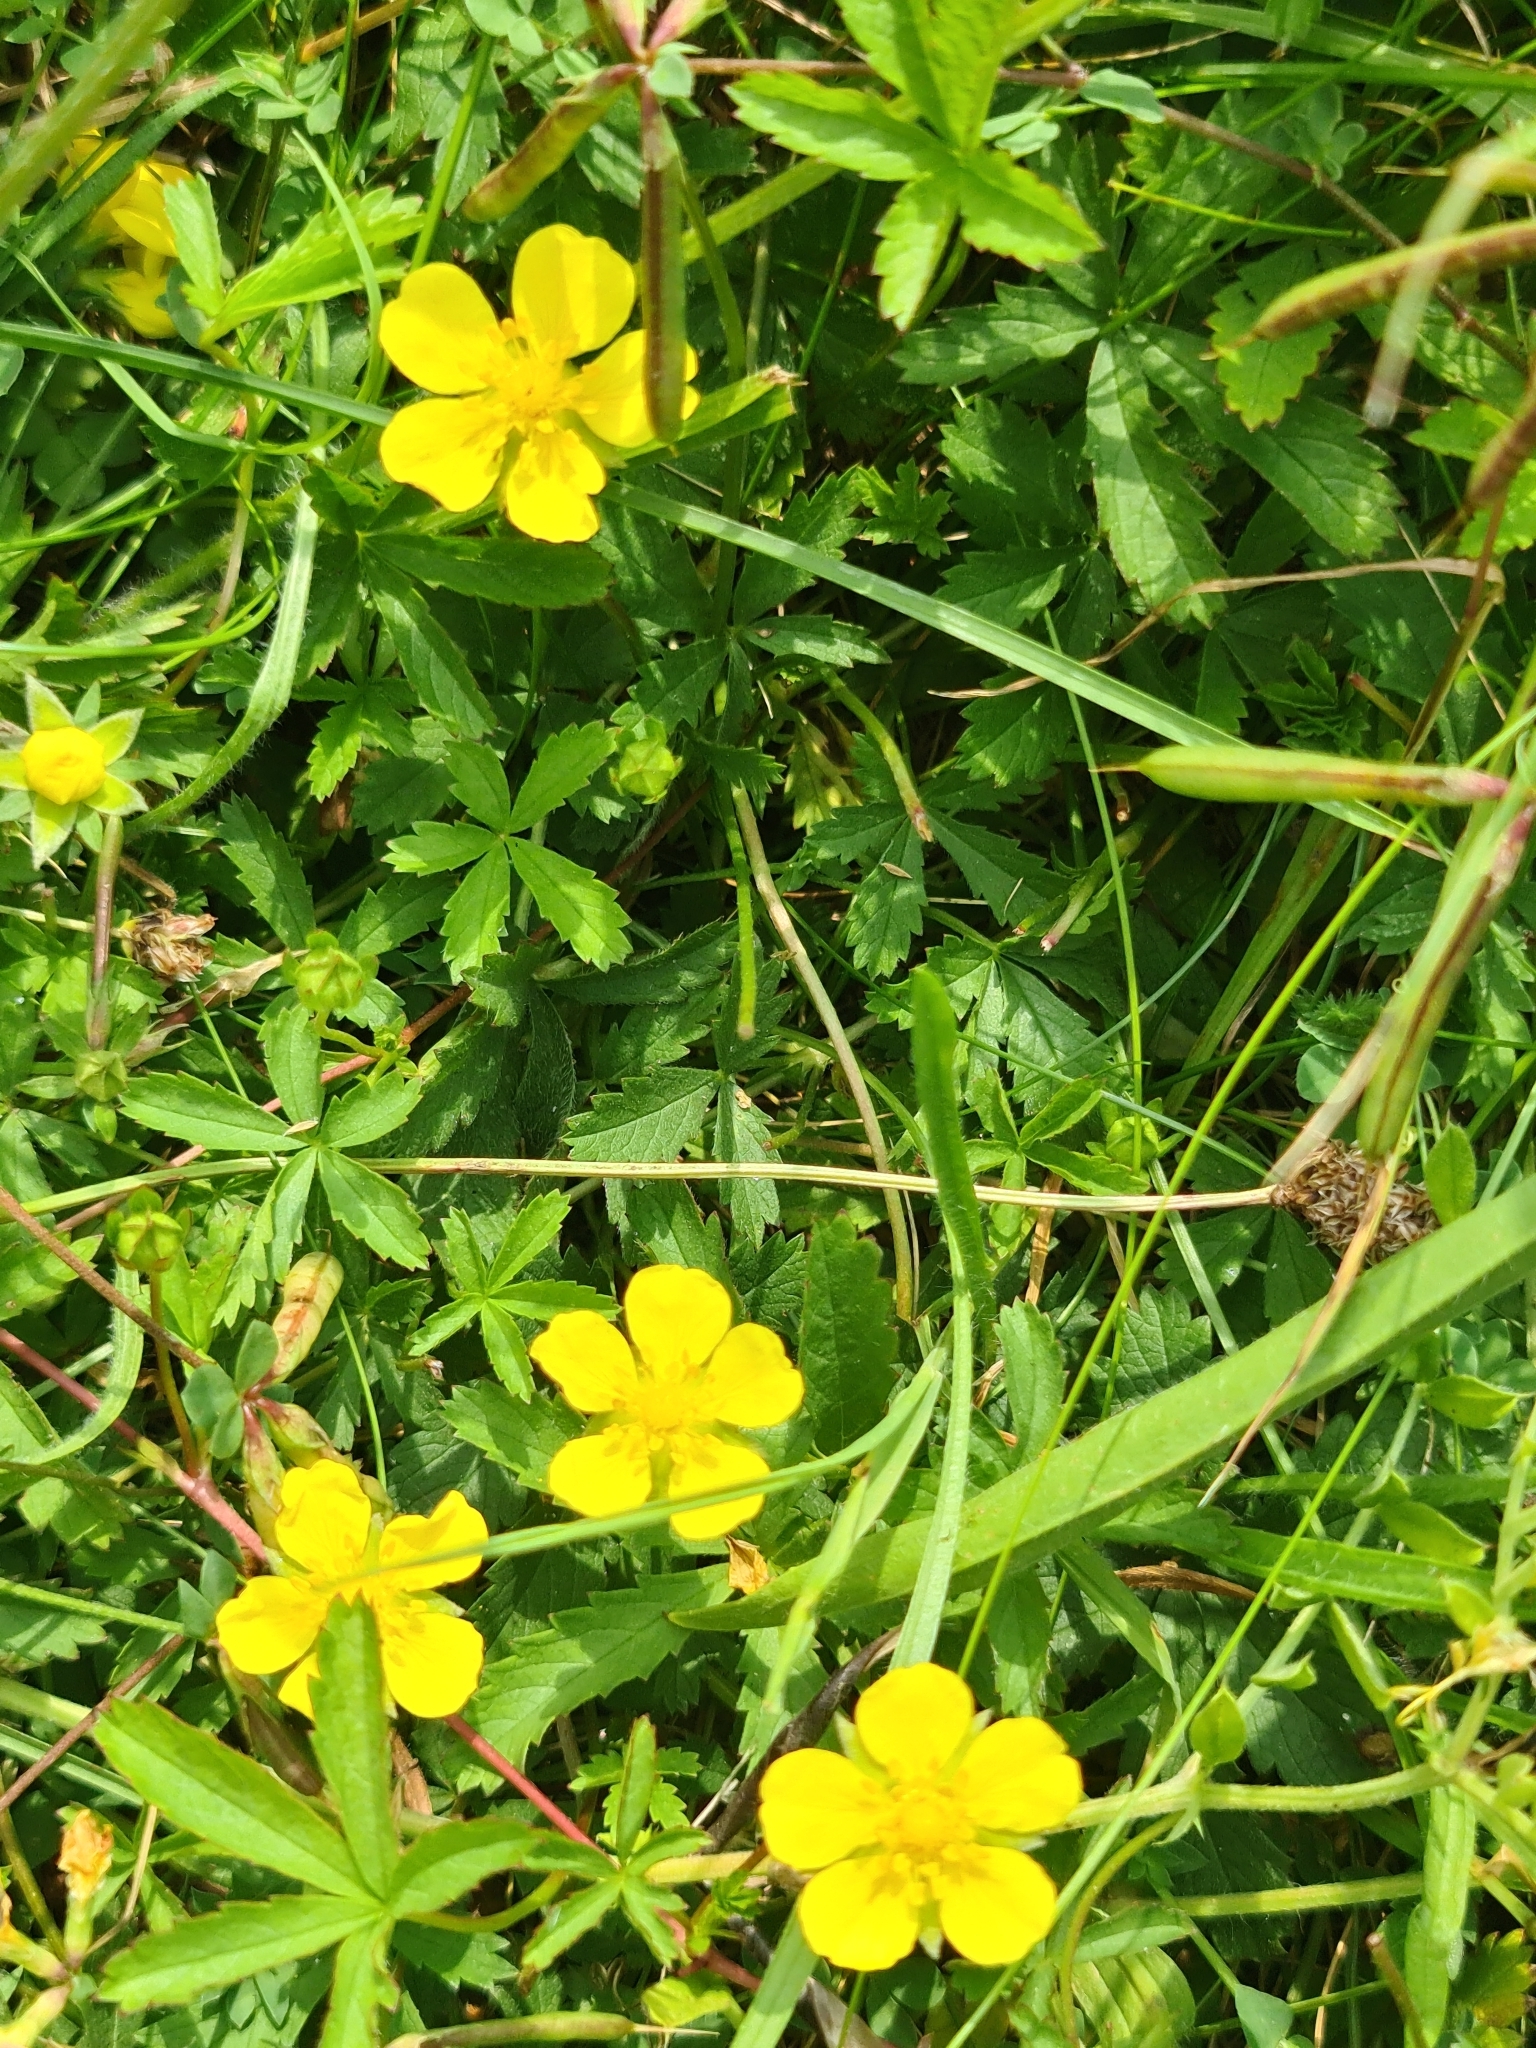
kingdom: Plantae
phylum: Tracheophyta
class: Magnoliopsida
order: Rosales
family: Rosaceae
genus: Potentilla
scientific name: Potentilla reptans
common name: Creeping cinquefoil
